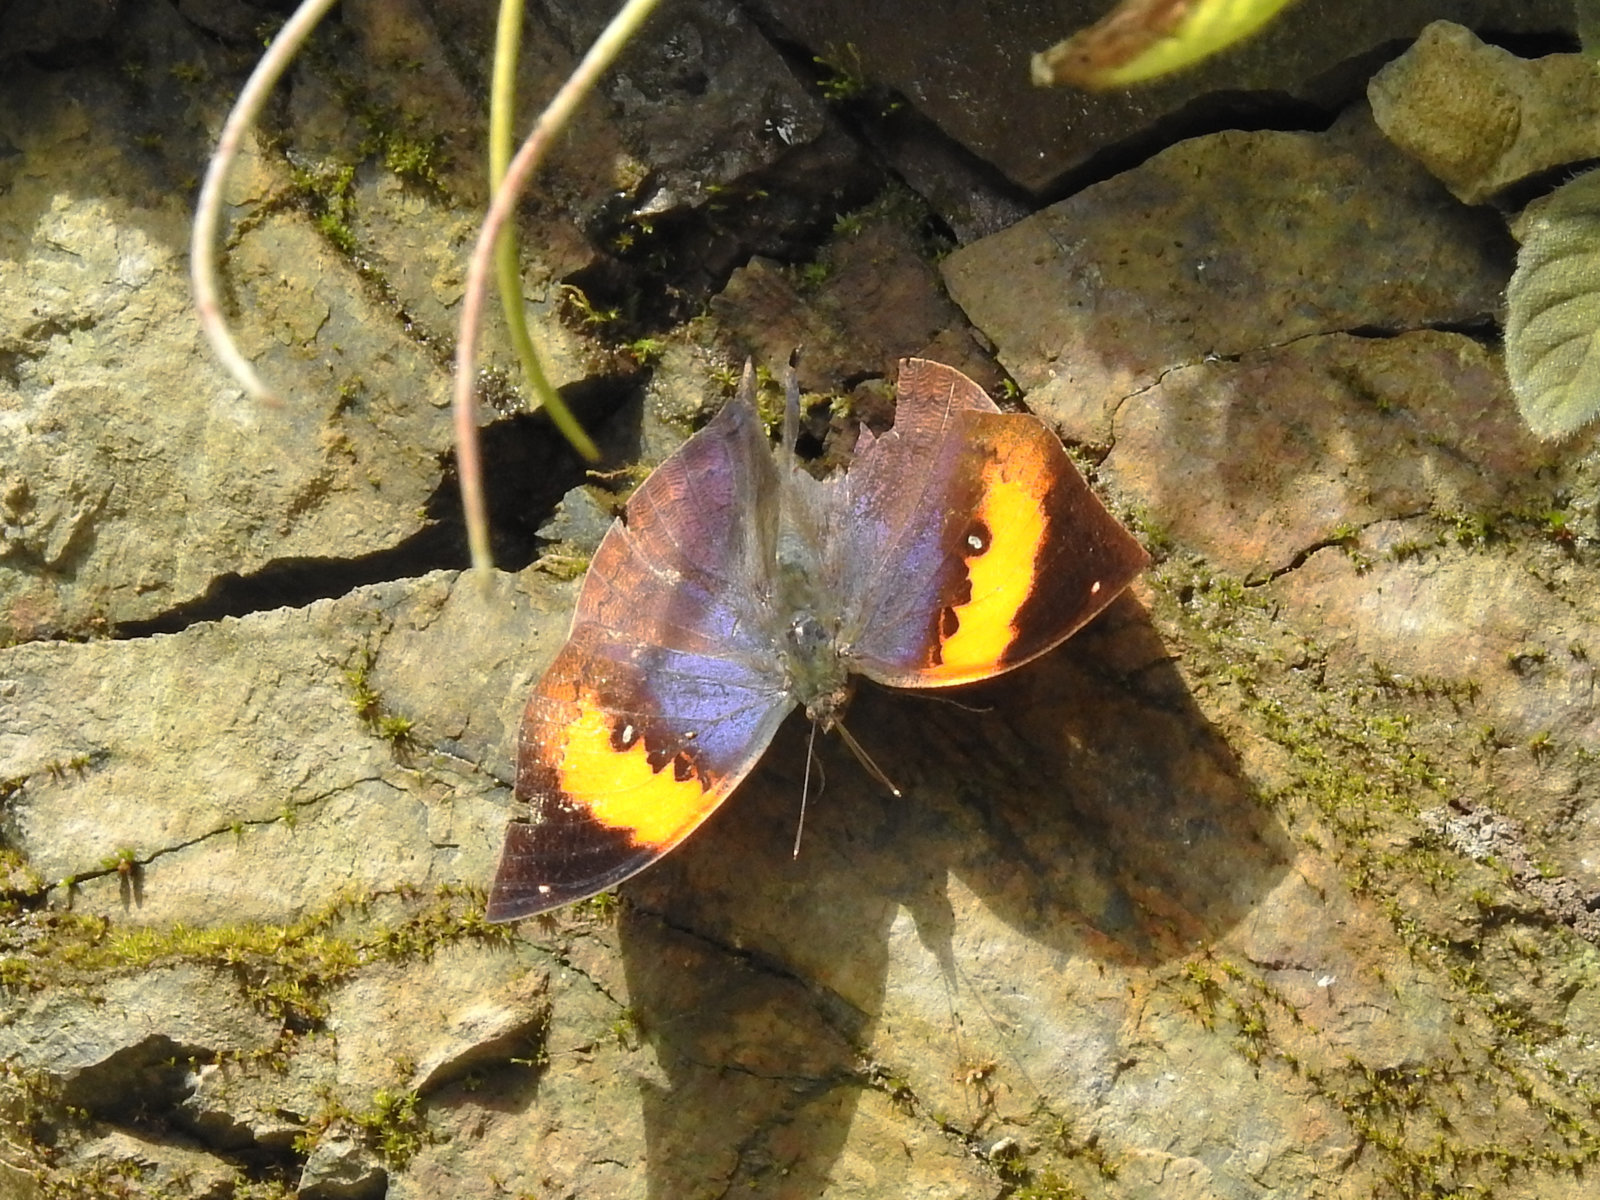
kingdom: Animalia
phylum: Arthropoda
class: Insecta
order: Lepidoptera
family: Nymphalidae
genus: Kallima
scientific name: Kallima inachus
